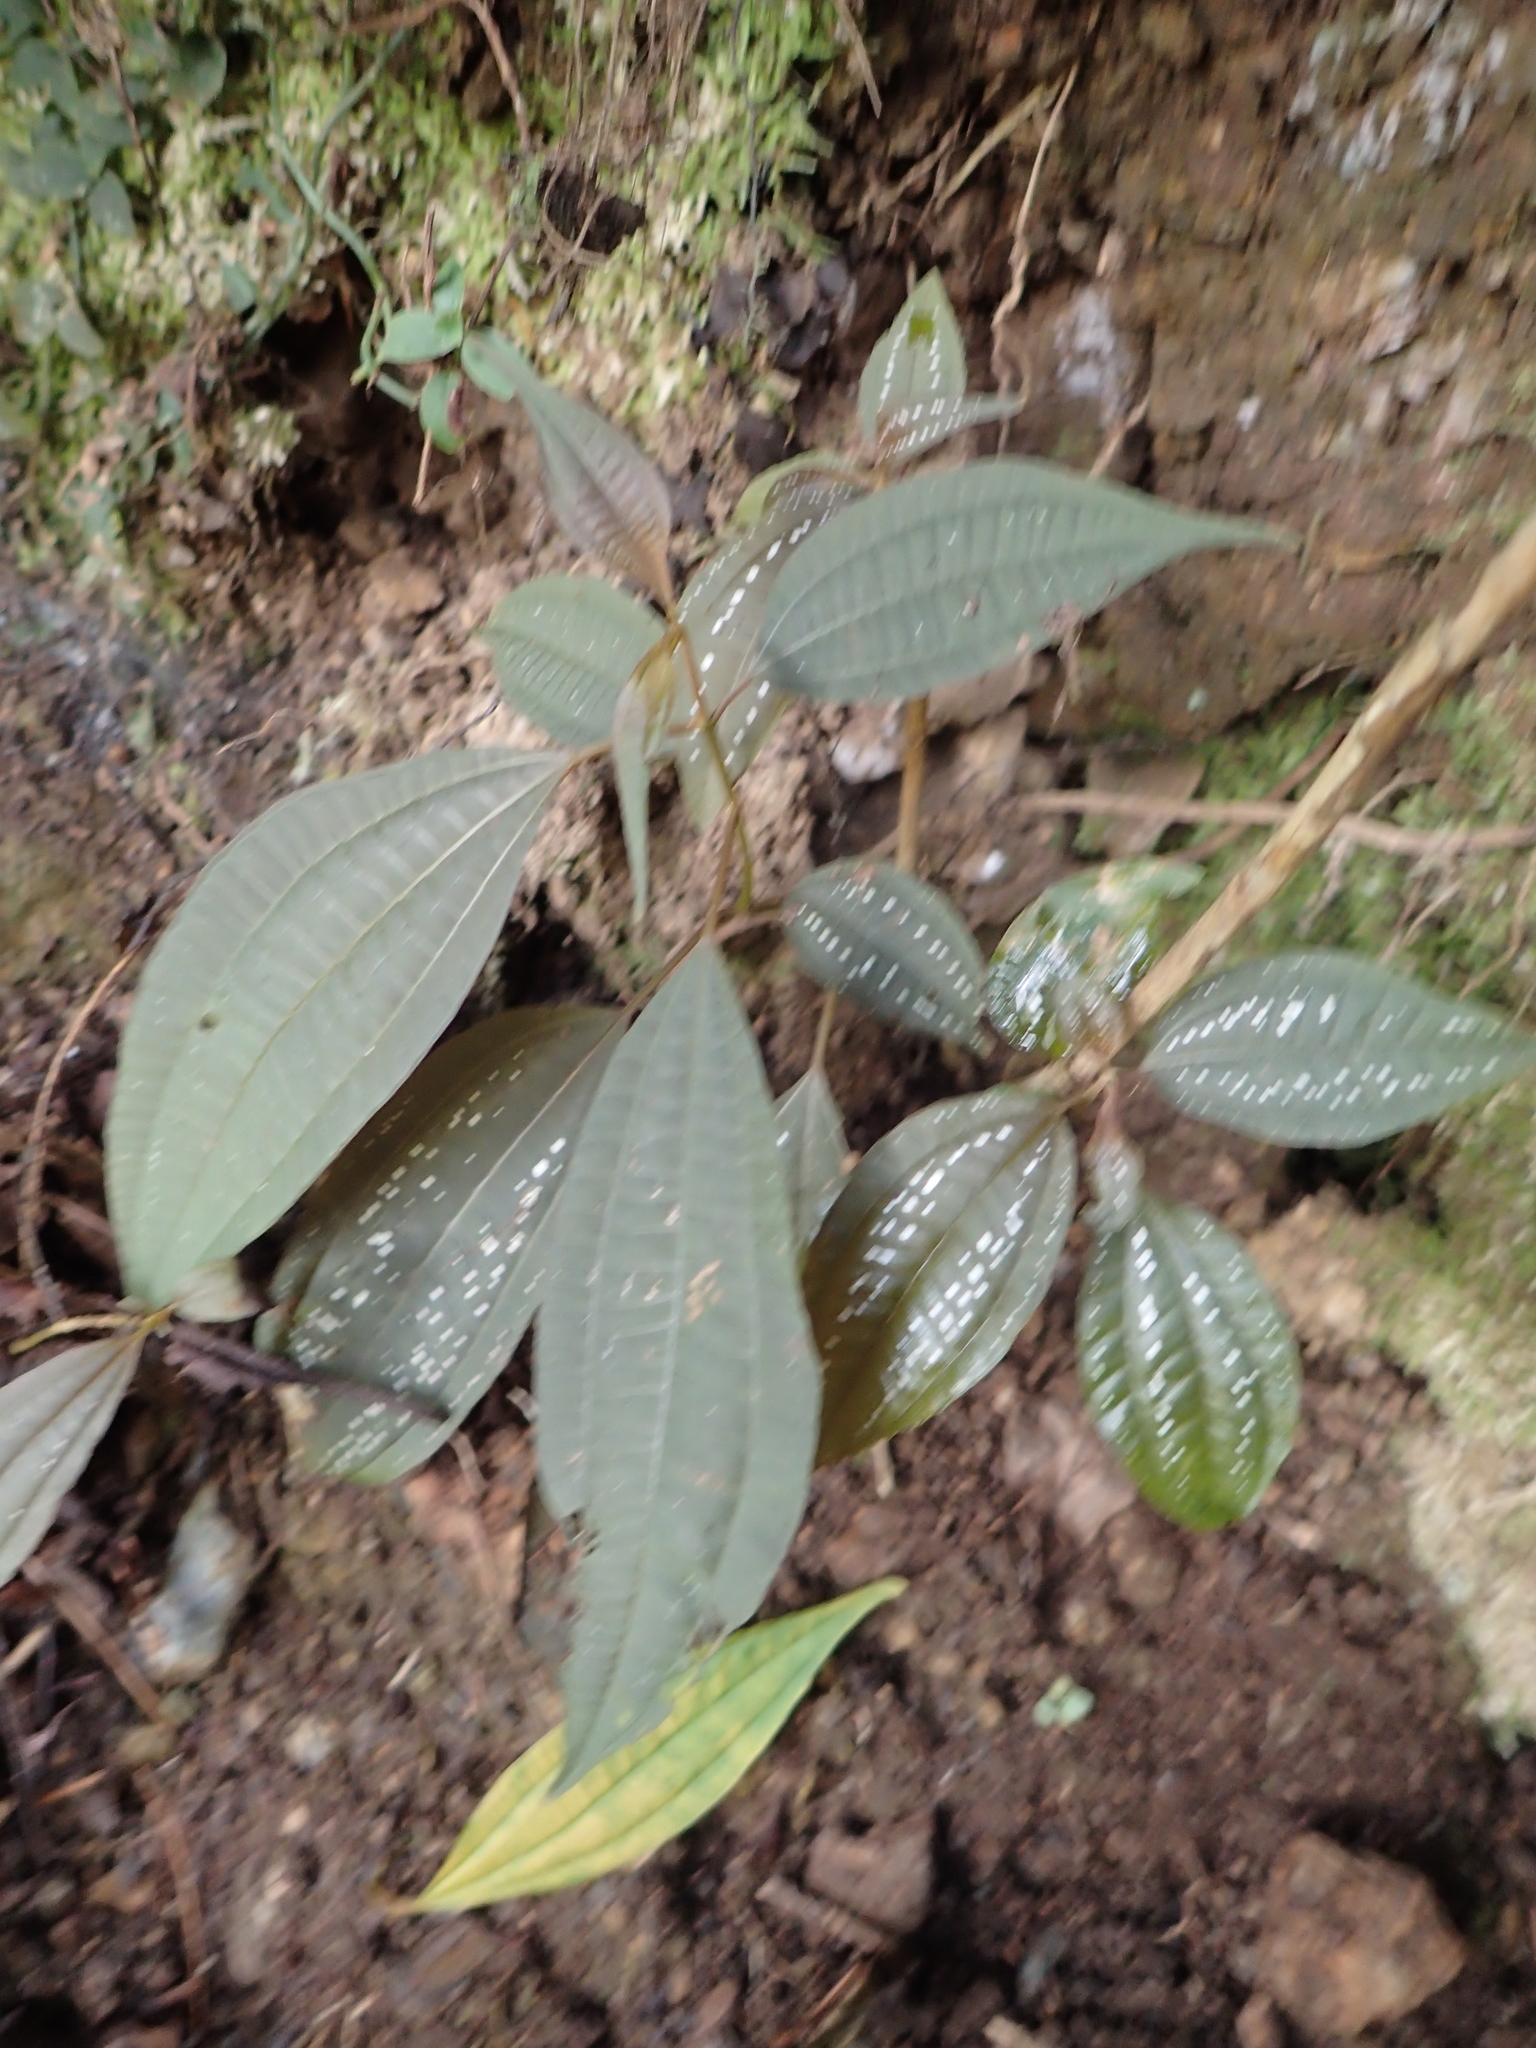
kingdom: Plantae
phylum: Tracheophyta
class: Magnoliopsida
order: Myrtales
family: Melastomataceae
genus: Blastus
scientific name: Blastus cochinchinensis
